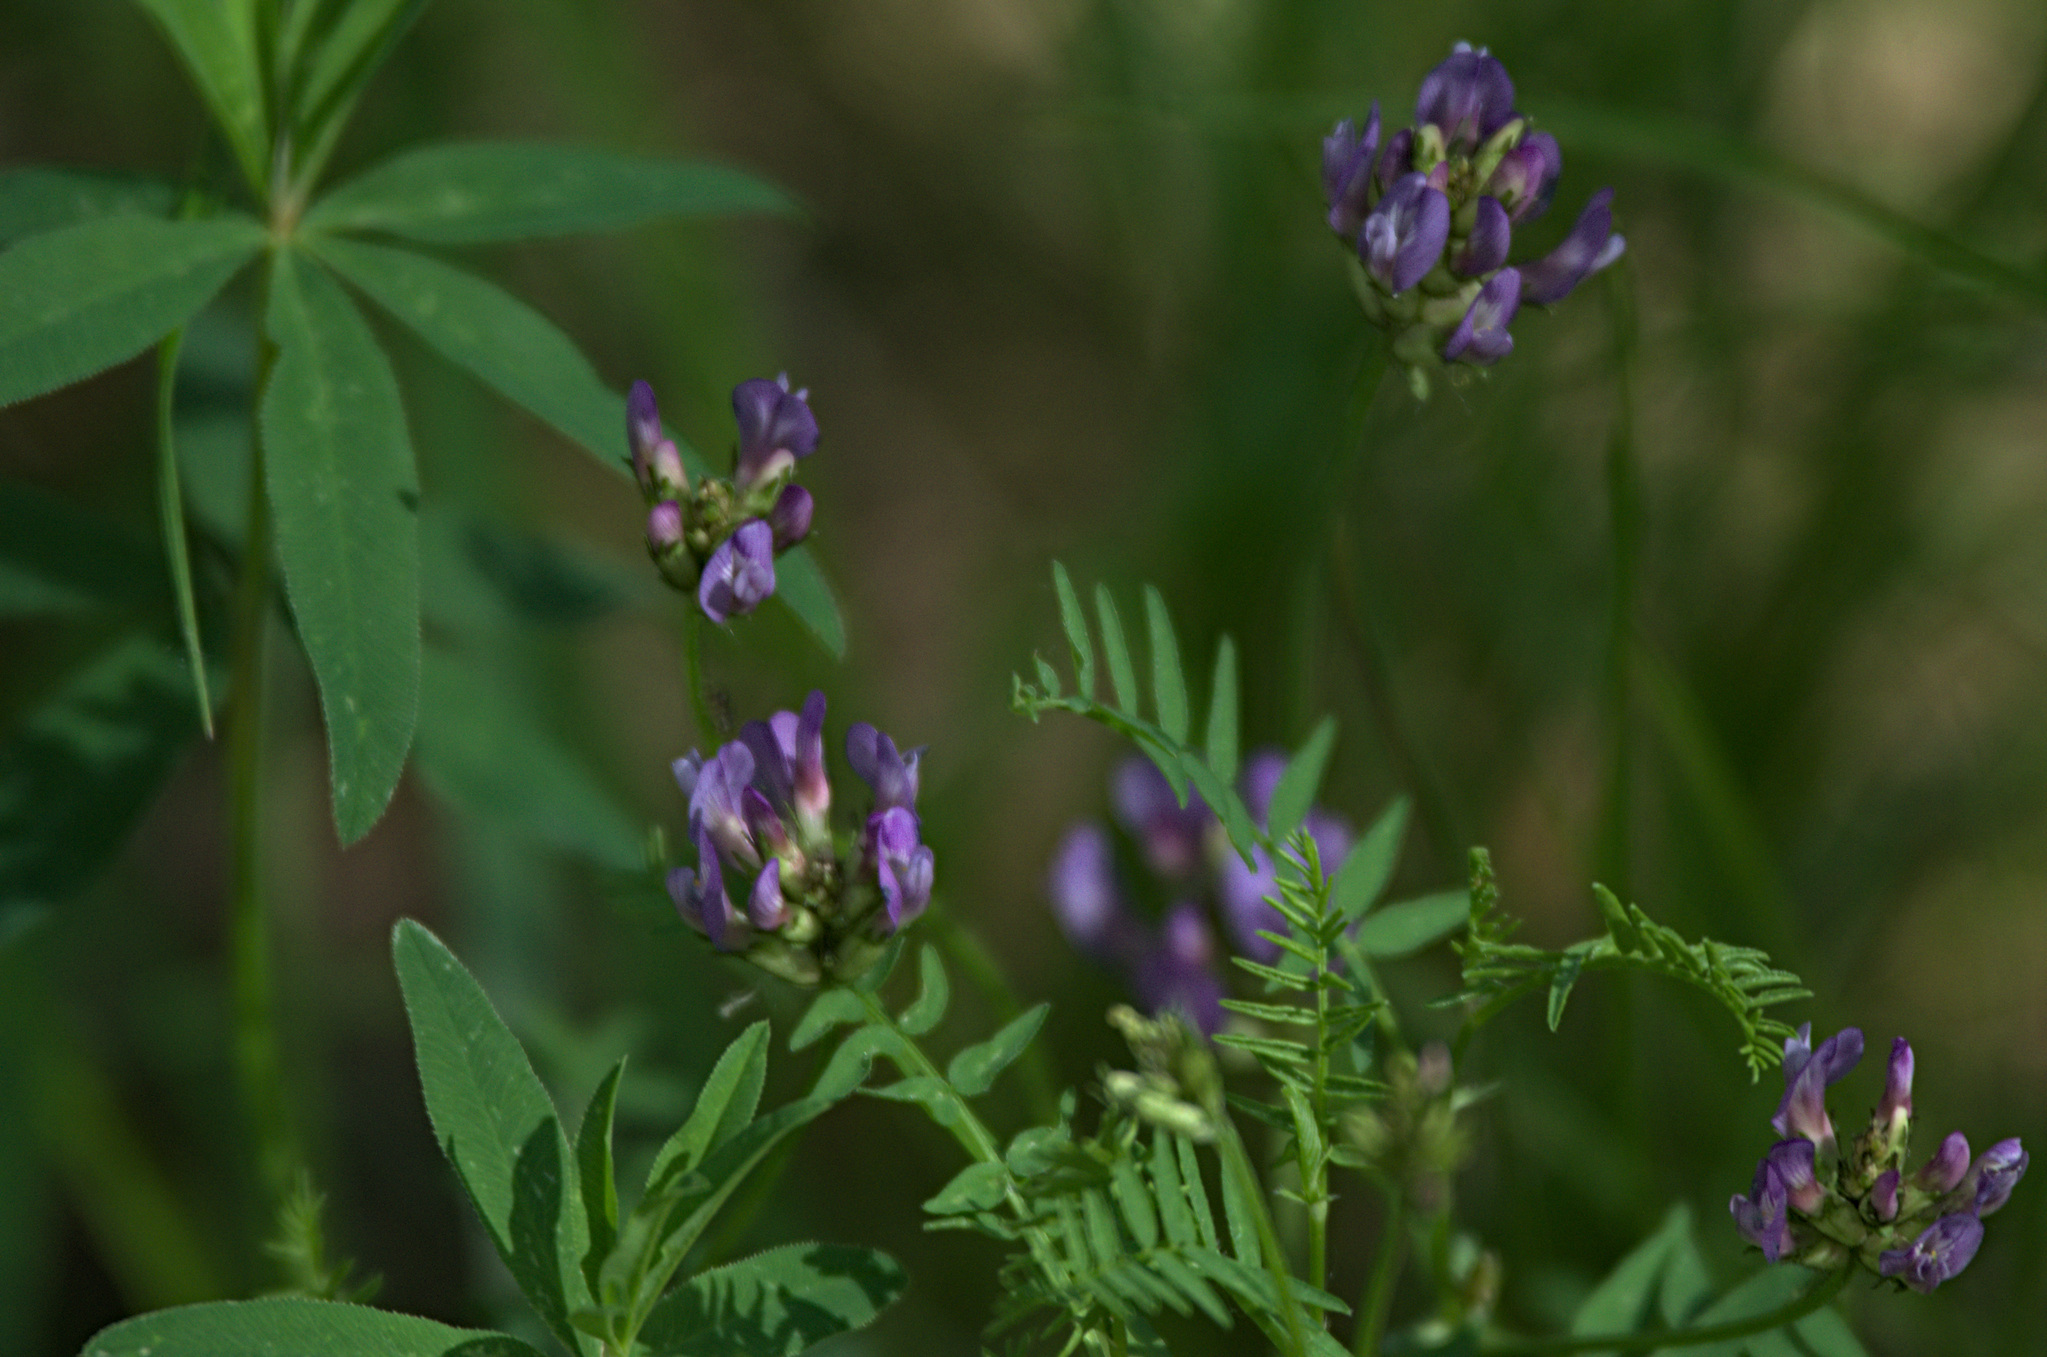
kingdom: Plantae
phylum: Tracheophyta
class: Magnoliopsida
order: Fabales
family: Fabaceae
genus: Astragalus
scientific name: Astragalus danicus
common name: Purple milk-vetch
